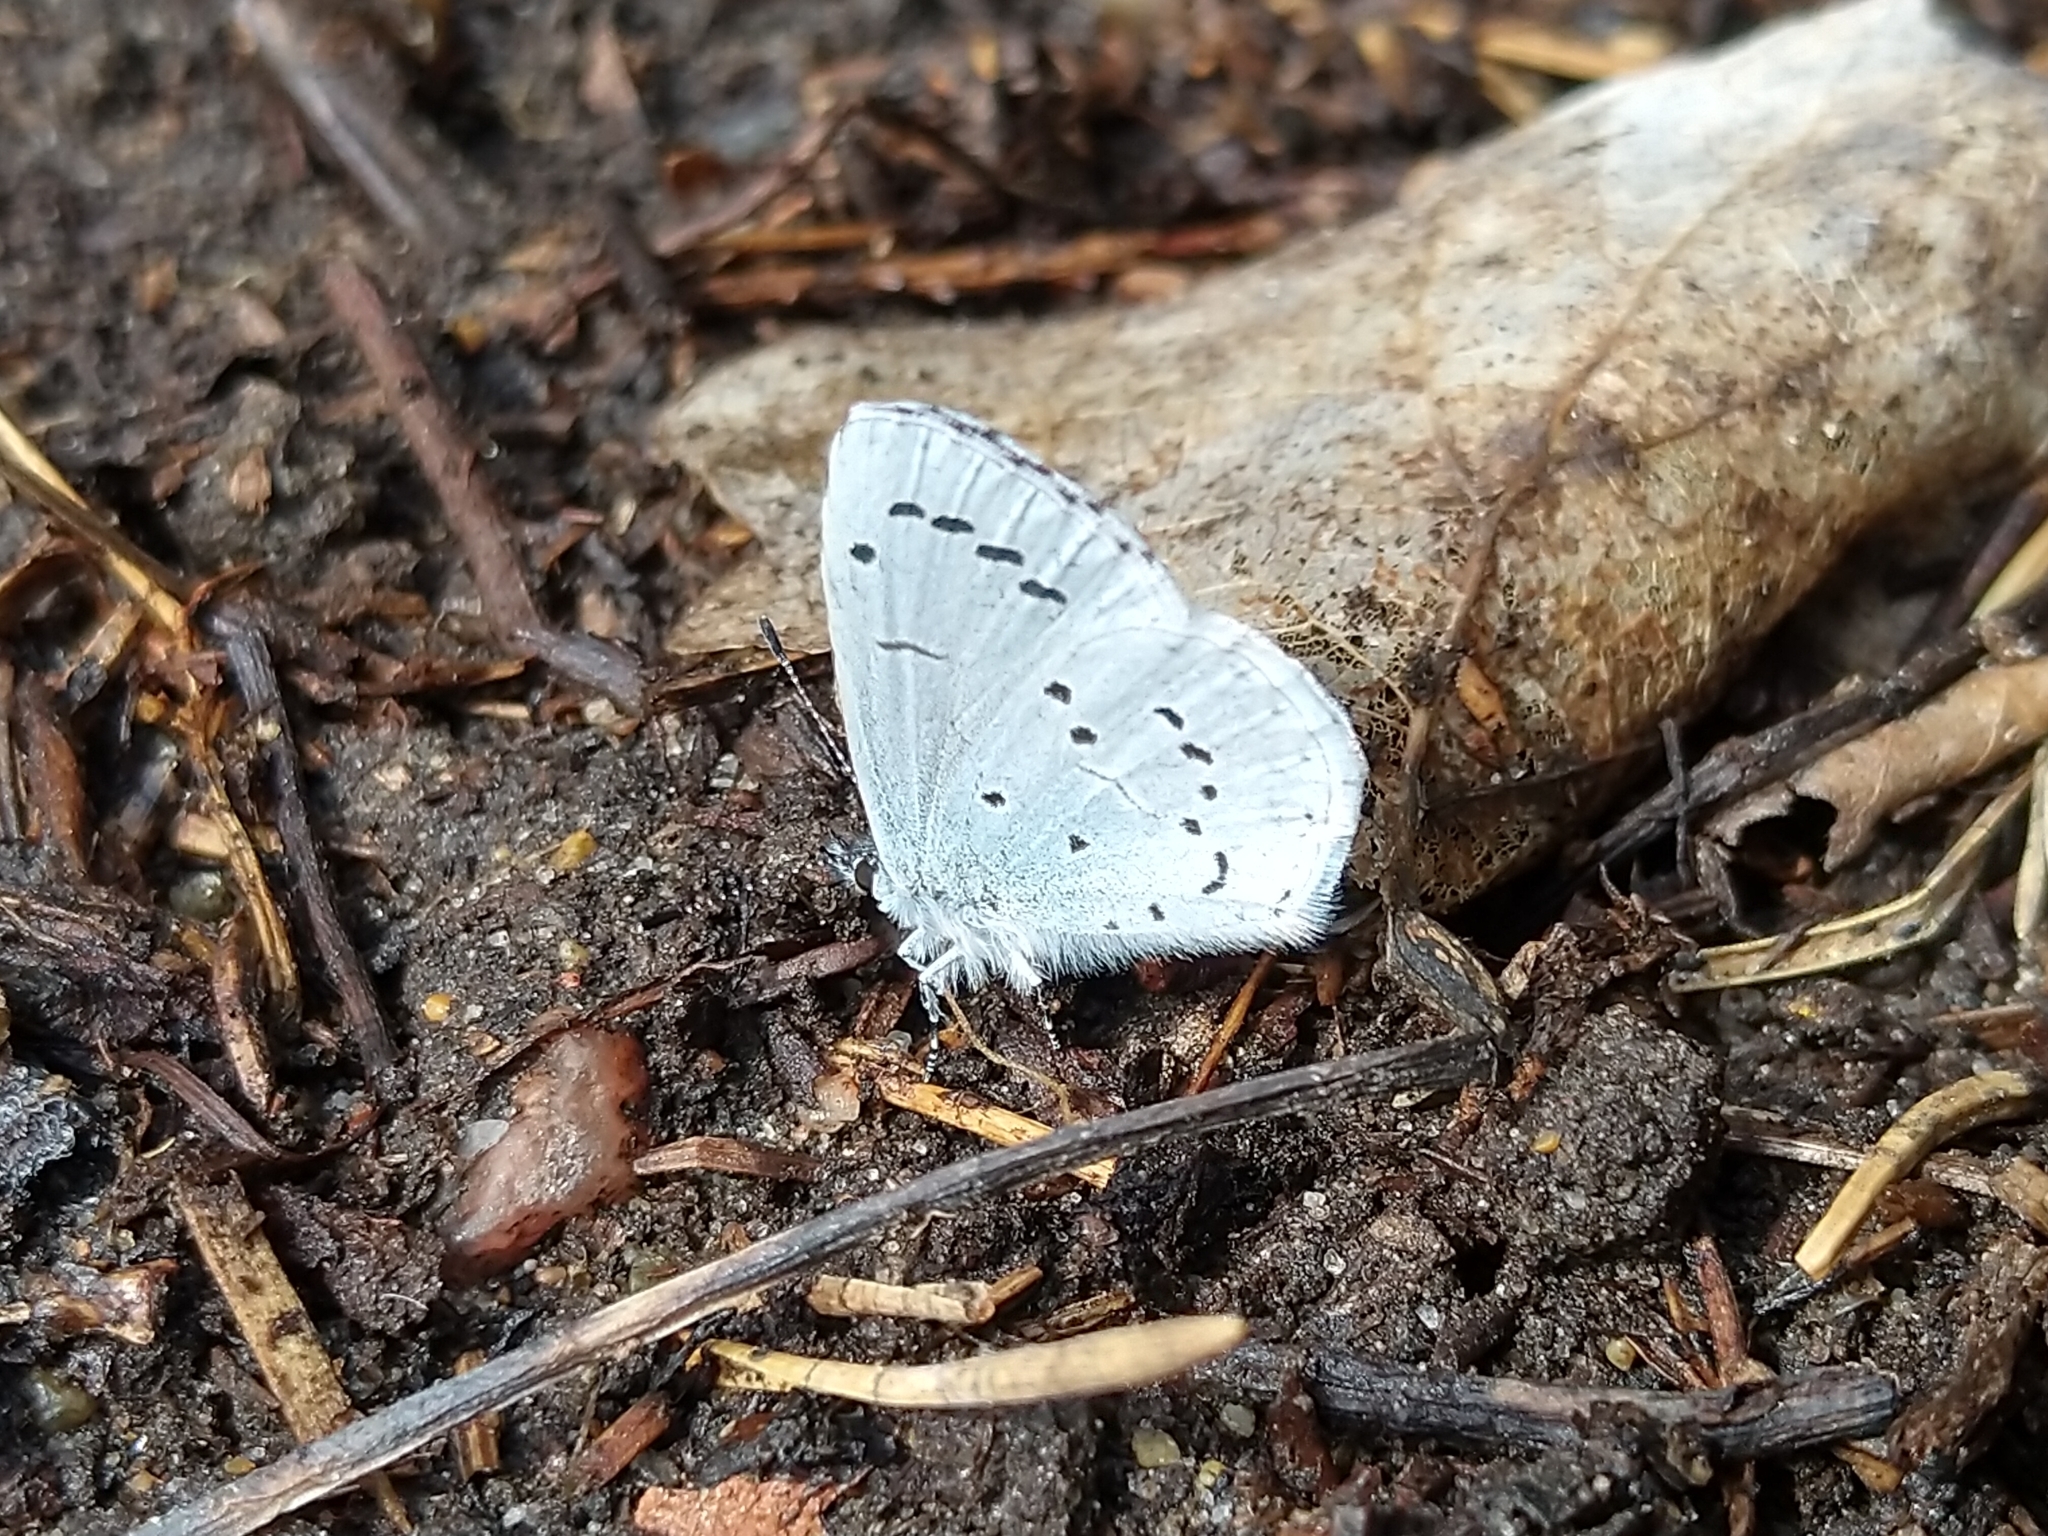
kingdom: Animalia
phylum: Arthropoda
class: Insecta
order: Lepidoptera
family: Lycaenidae
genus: Celastrina
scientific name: Celastrina argiolus
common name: Holly blue
